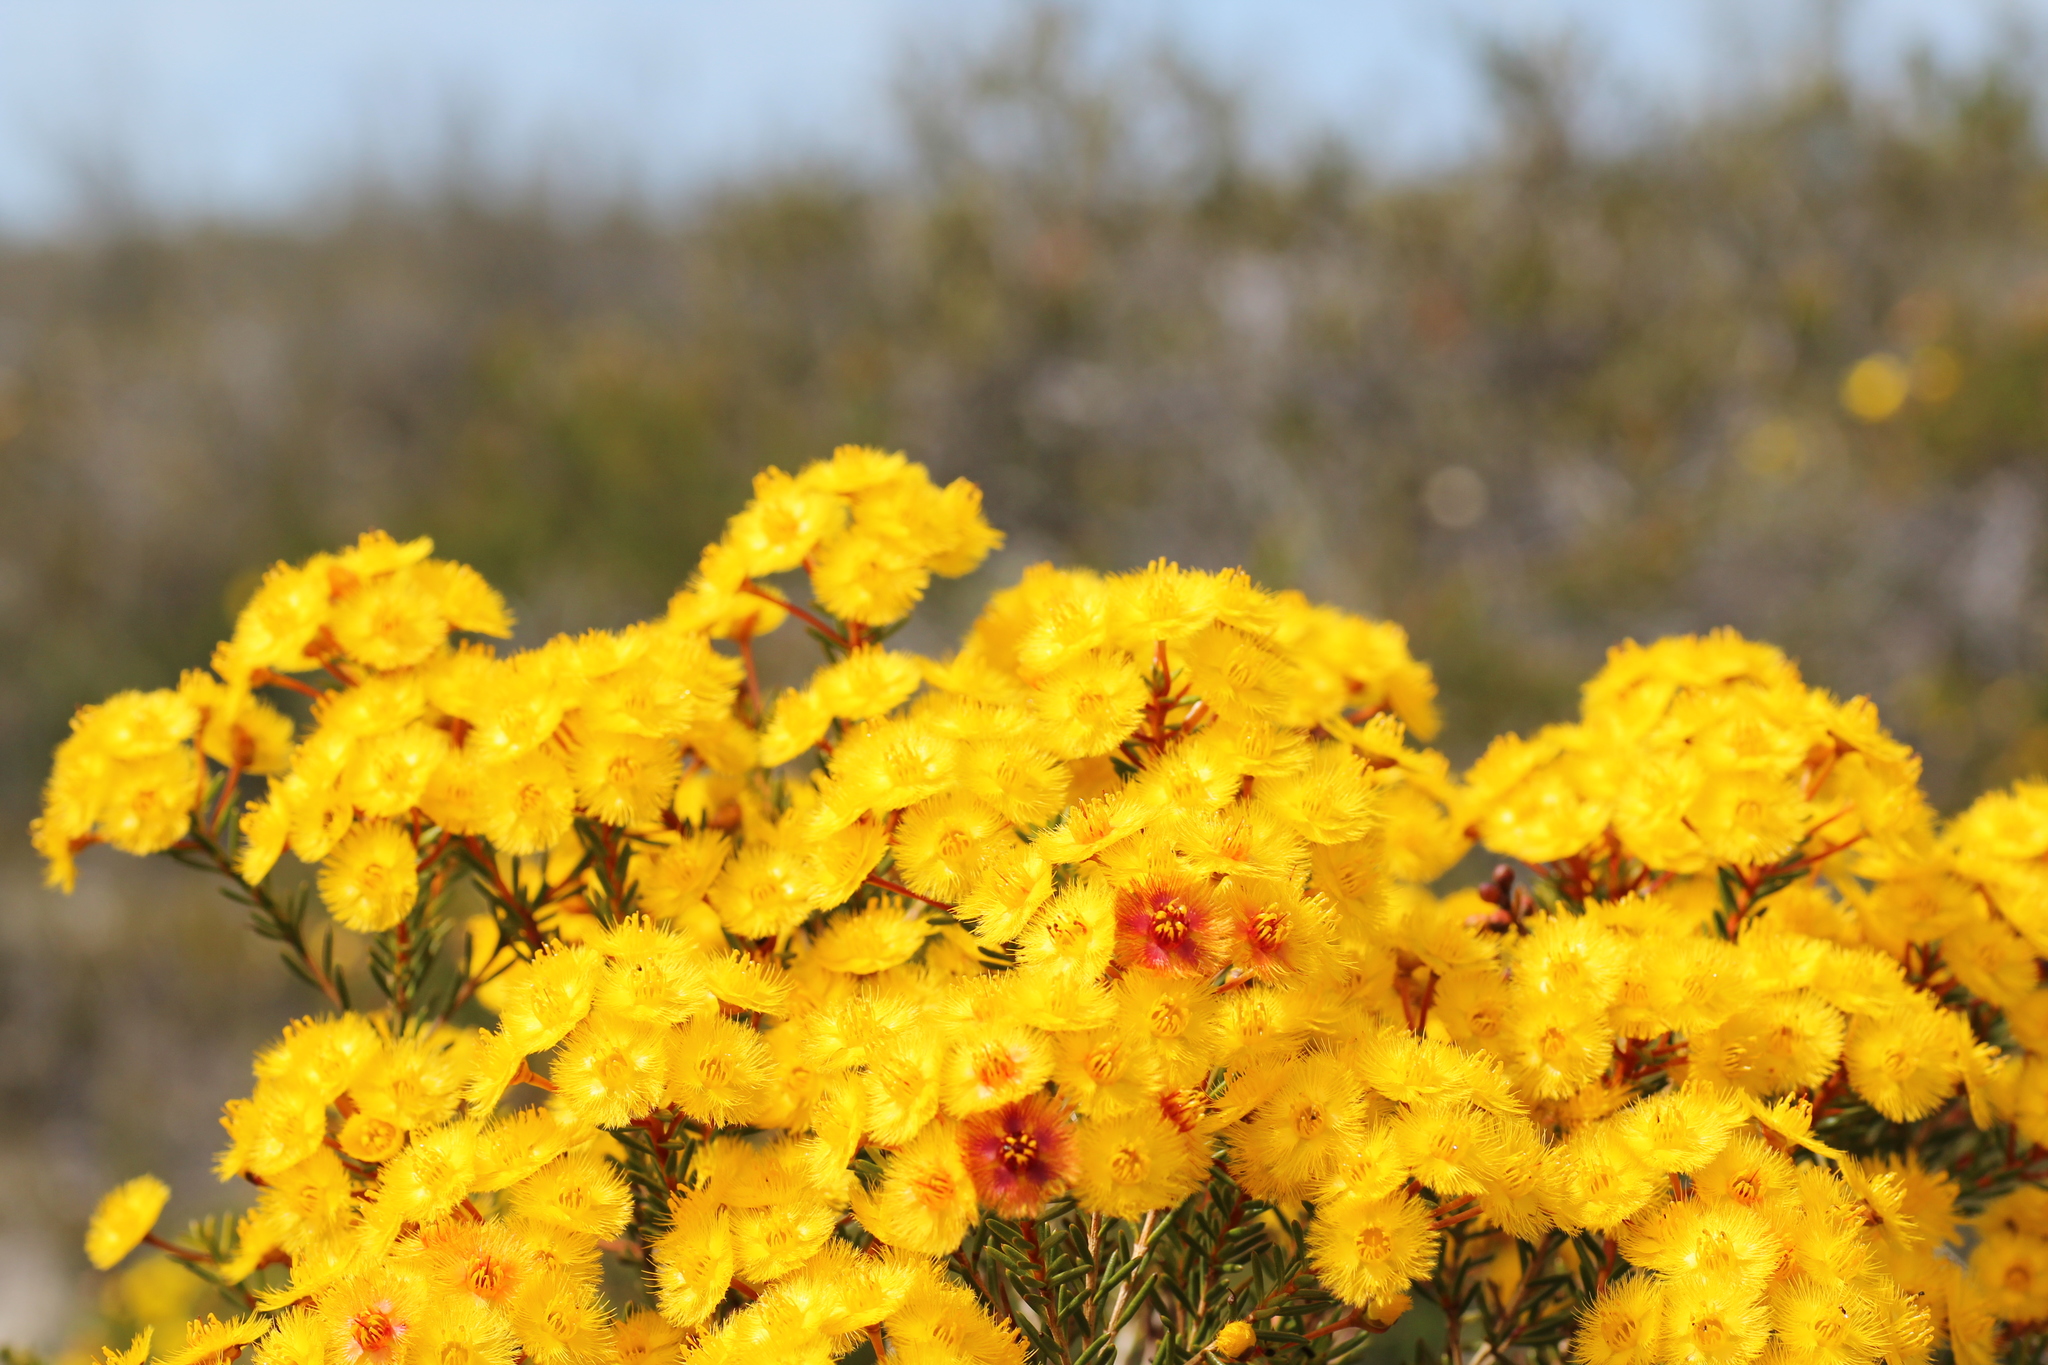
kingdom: Plantae
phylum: Tracheophyta
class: Magnoliopsida
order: Myrtales
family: Myrtaceae
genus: Verticordia
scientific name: Verticordia nobilis
